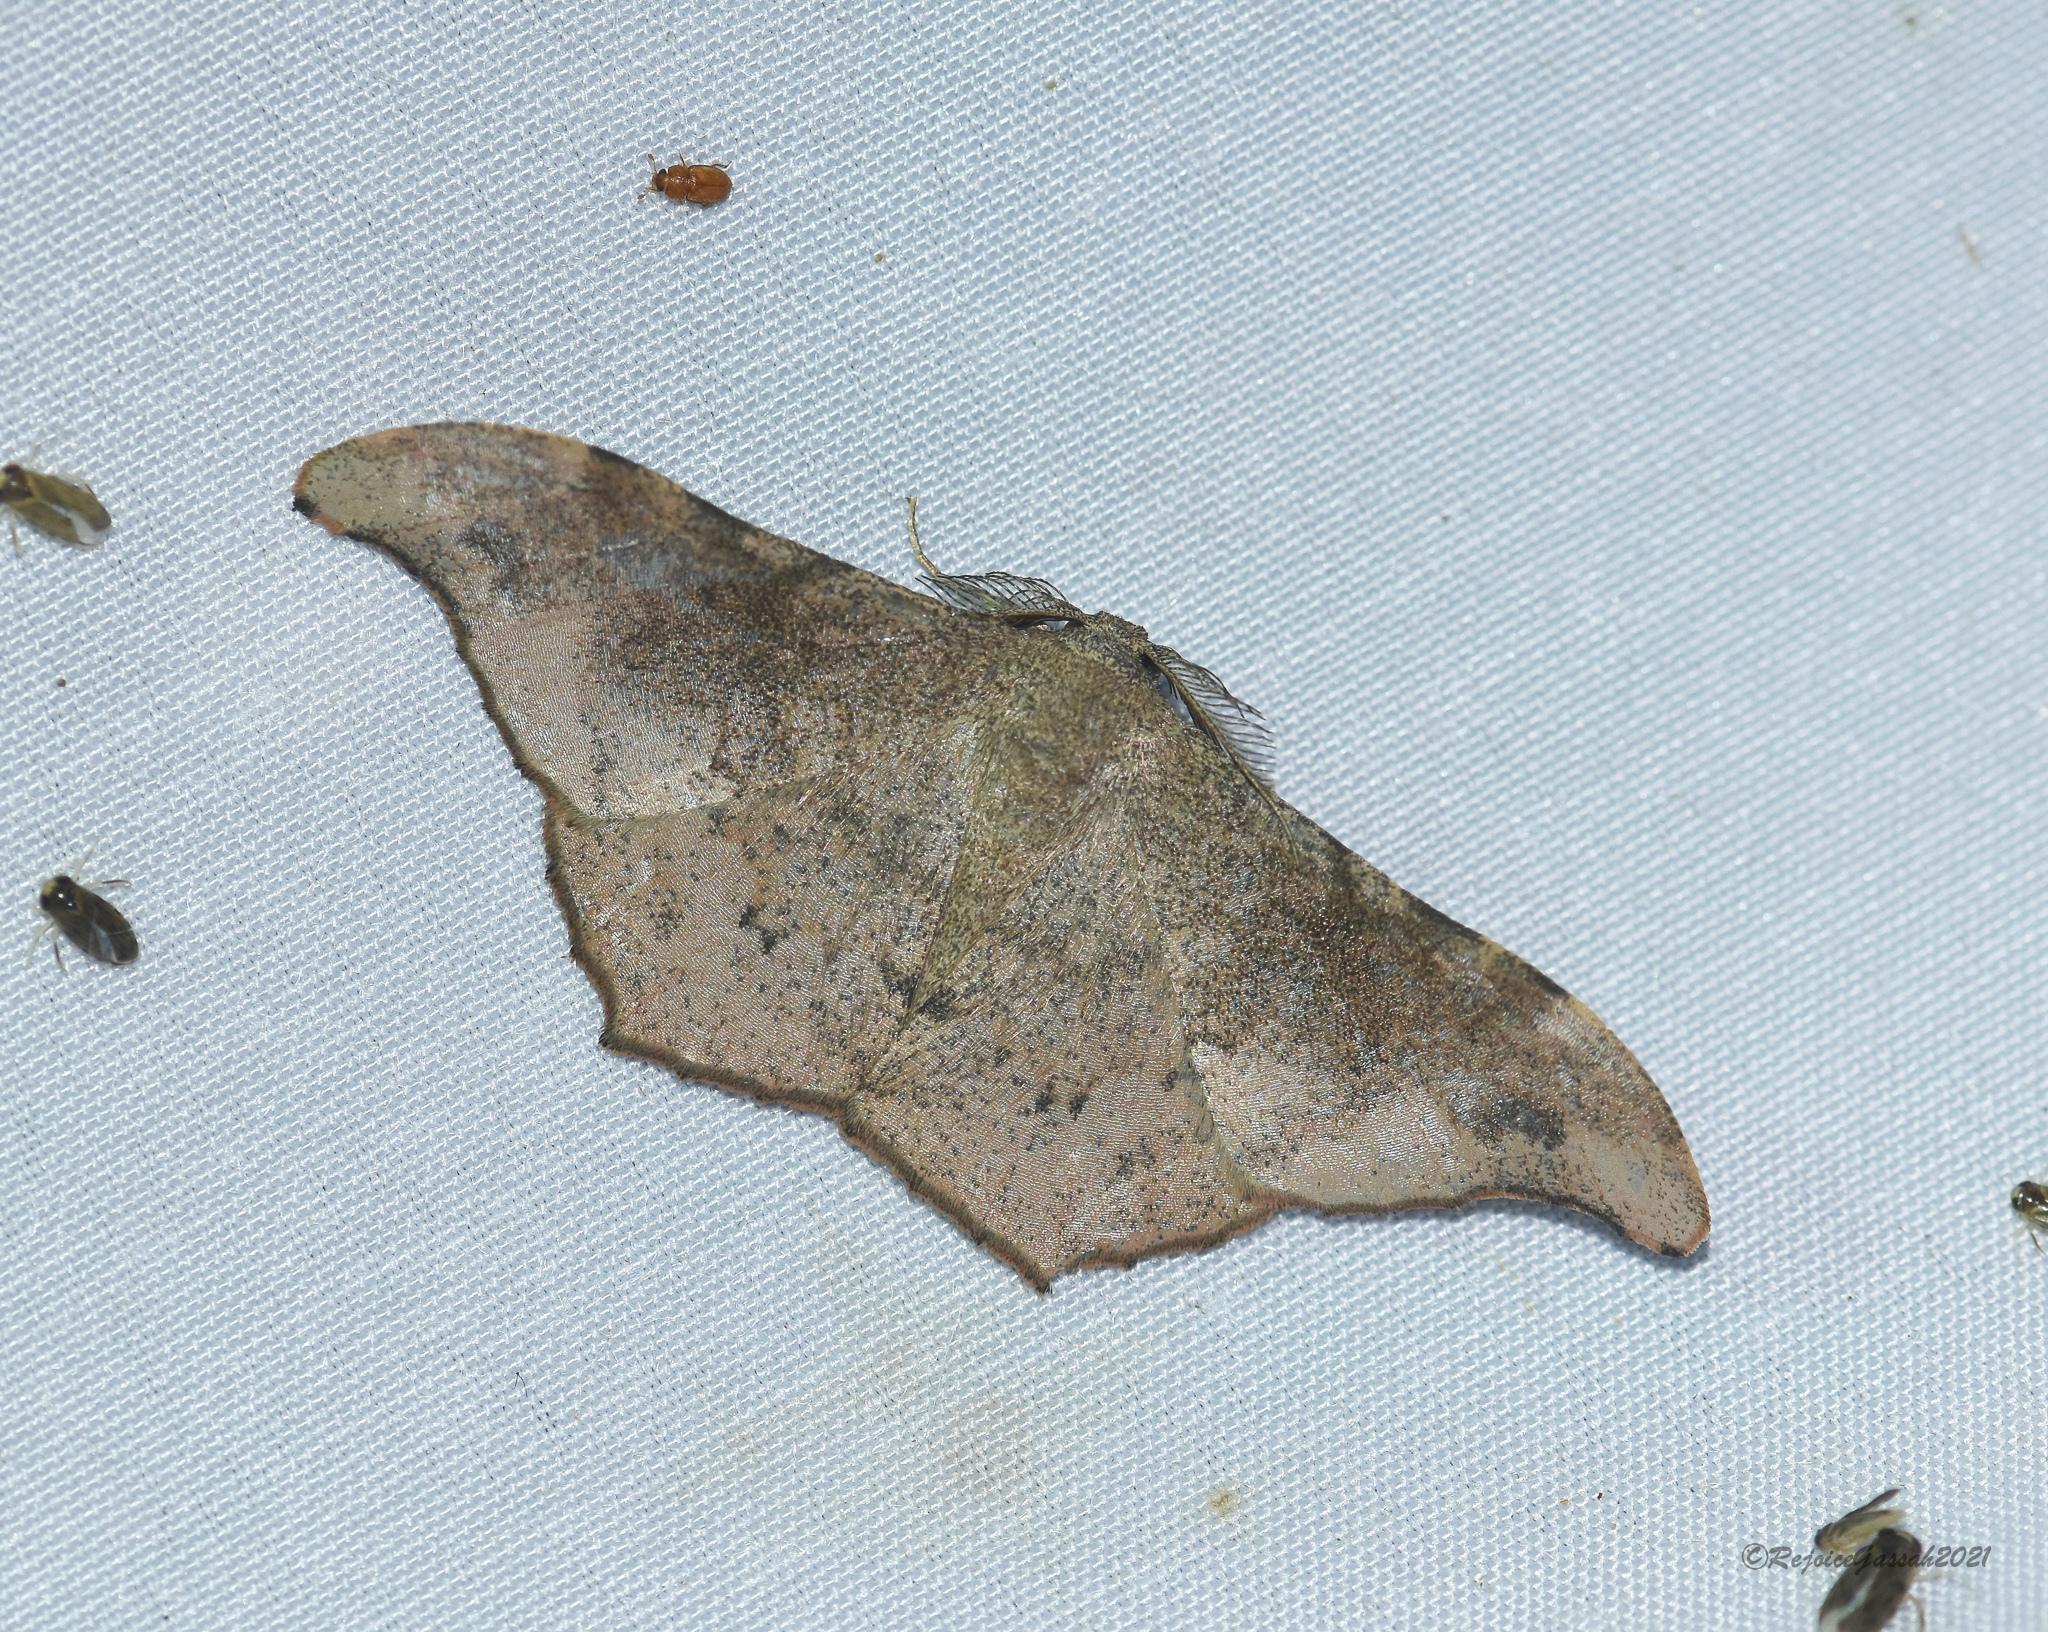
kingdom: Animalia
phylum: Arthropoda
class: Insecta
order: Lepidoptera
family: Geometridae
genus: Hyposidra
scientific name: Hyposidra talaca
